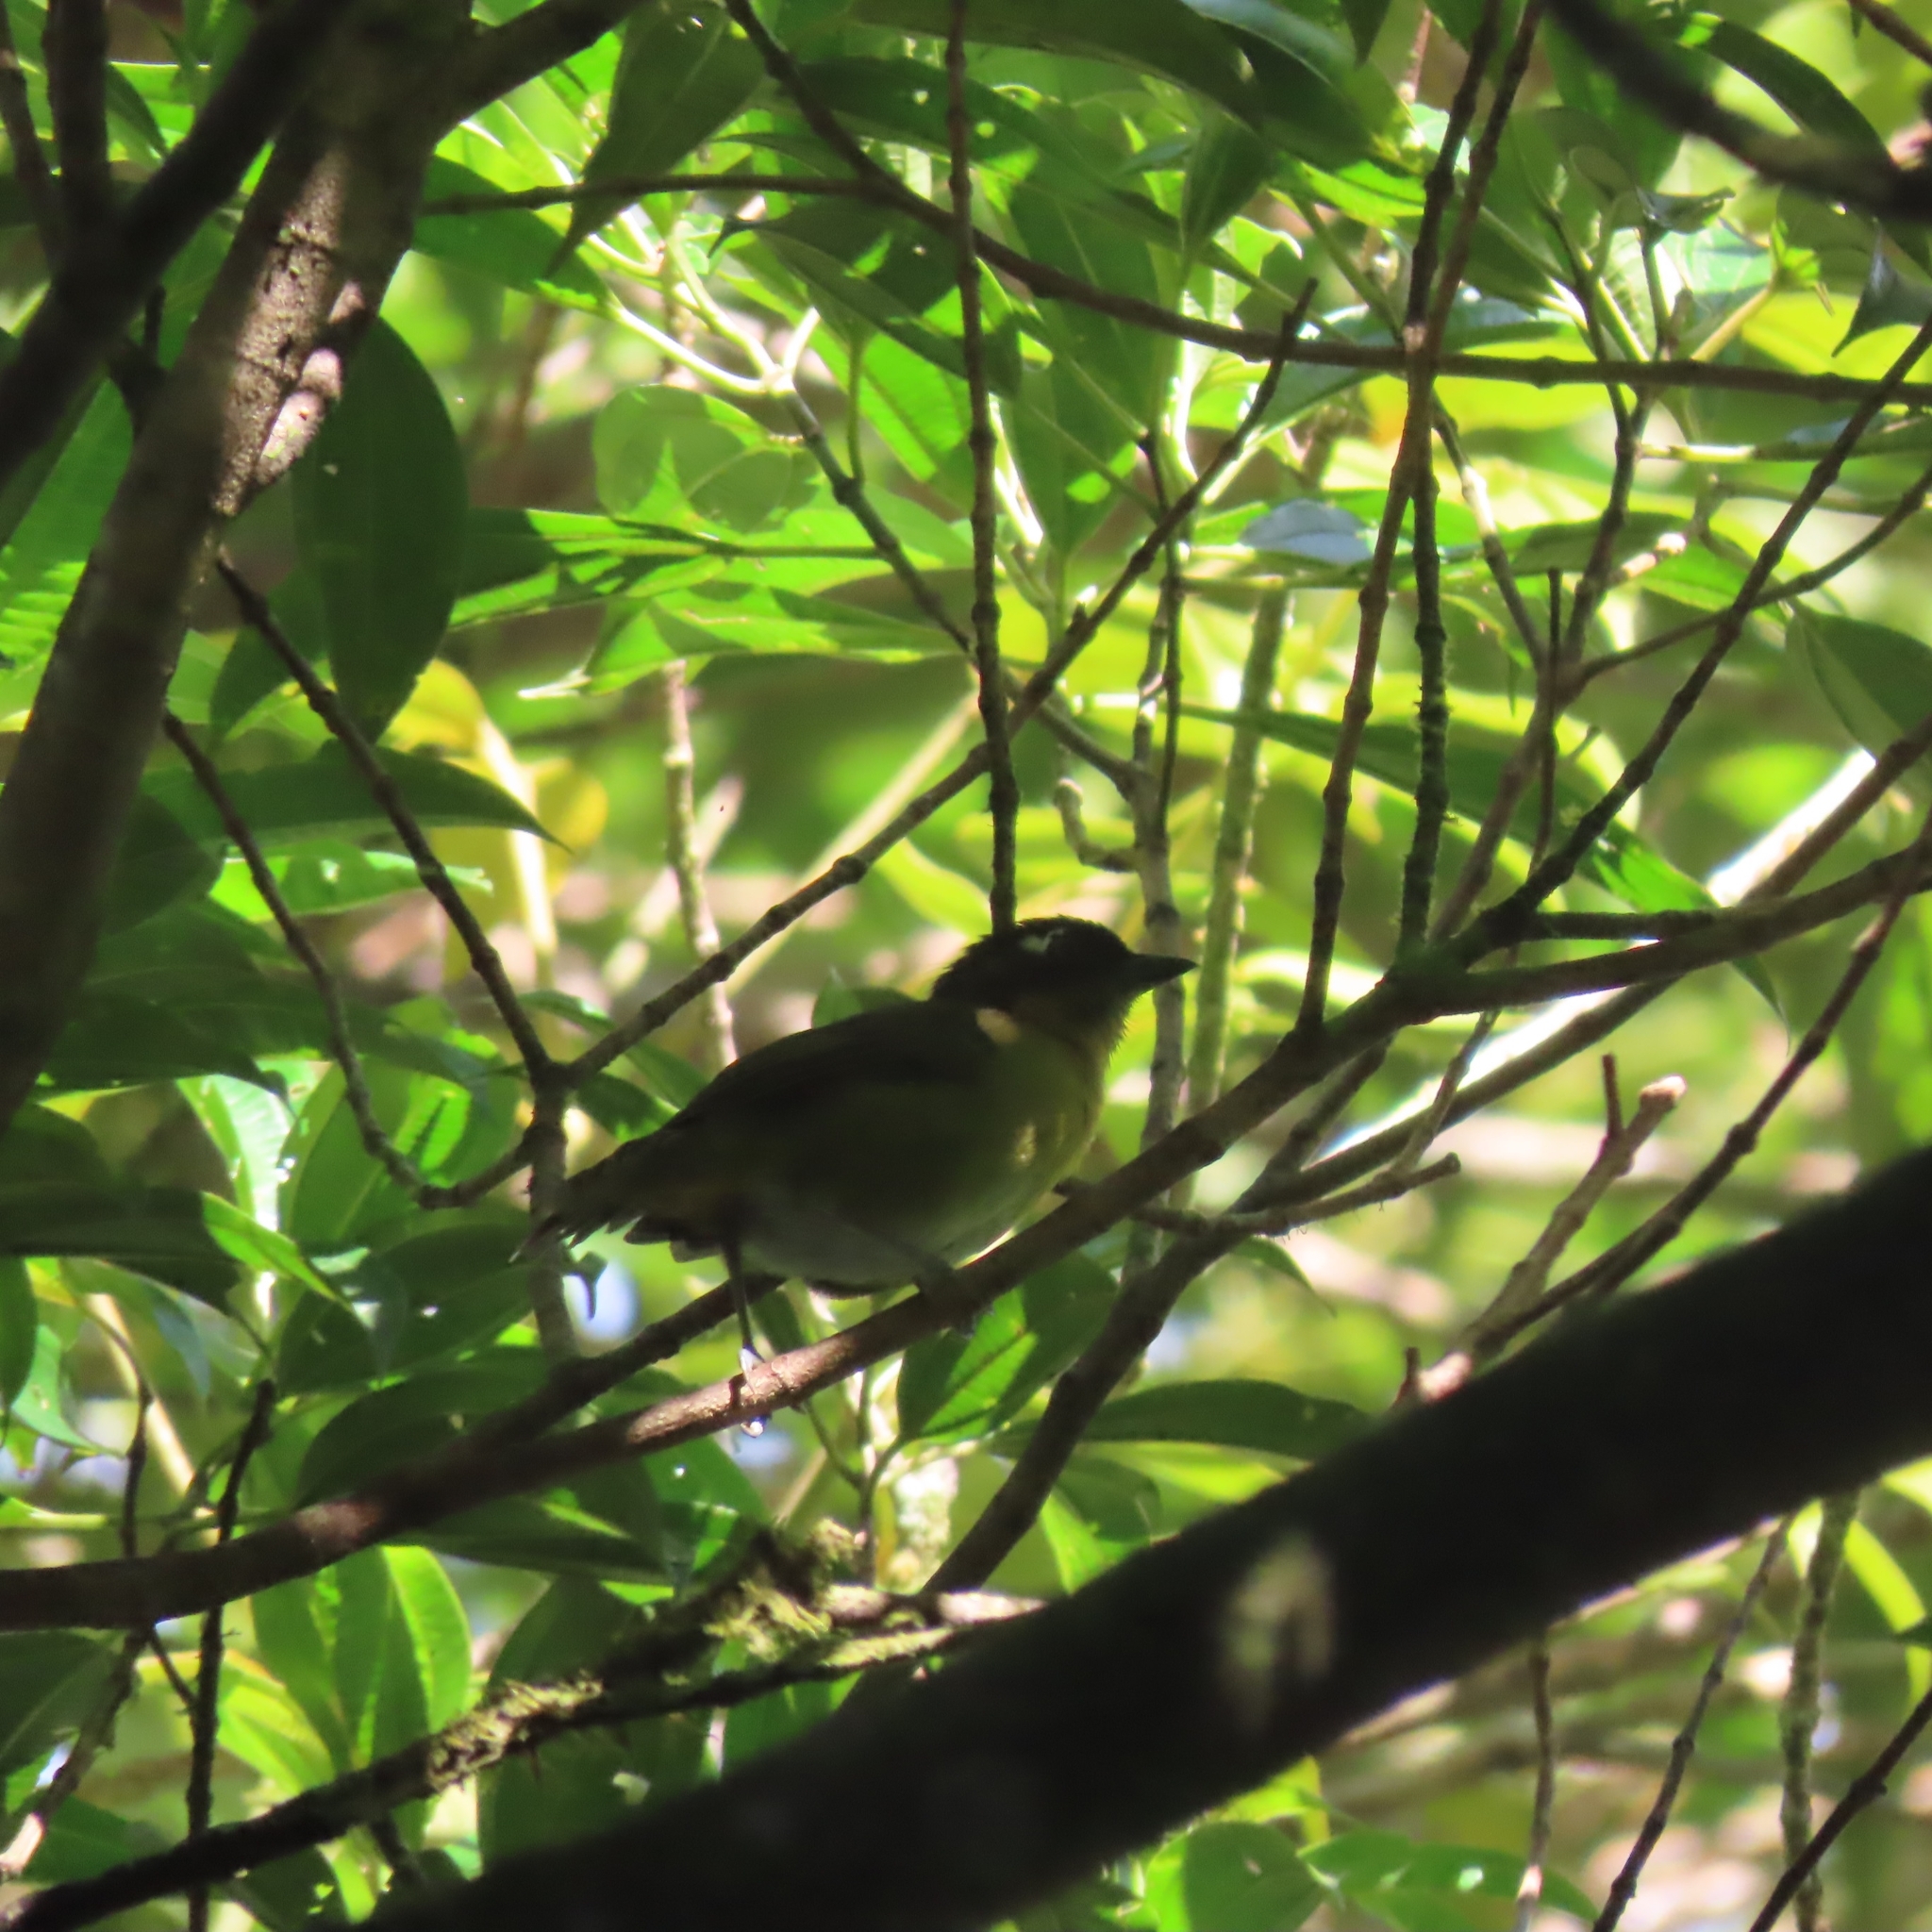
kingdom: Animalia
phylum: Chordata
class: Aves
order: Passeriformes
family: Passerellidae
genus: Chlorospingus
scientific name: Chlorospingus flavopectus
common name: Common chlorospingus
